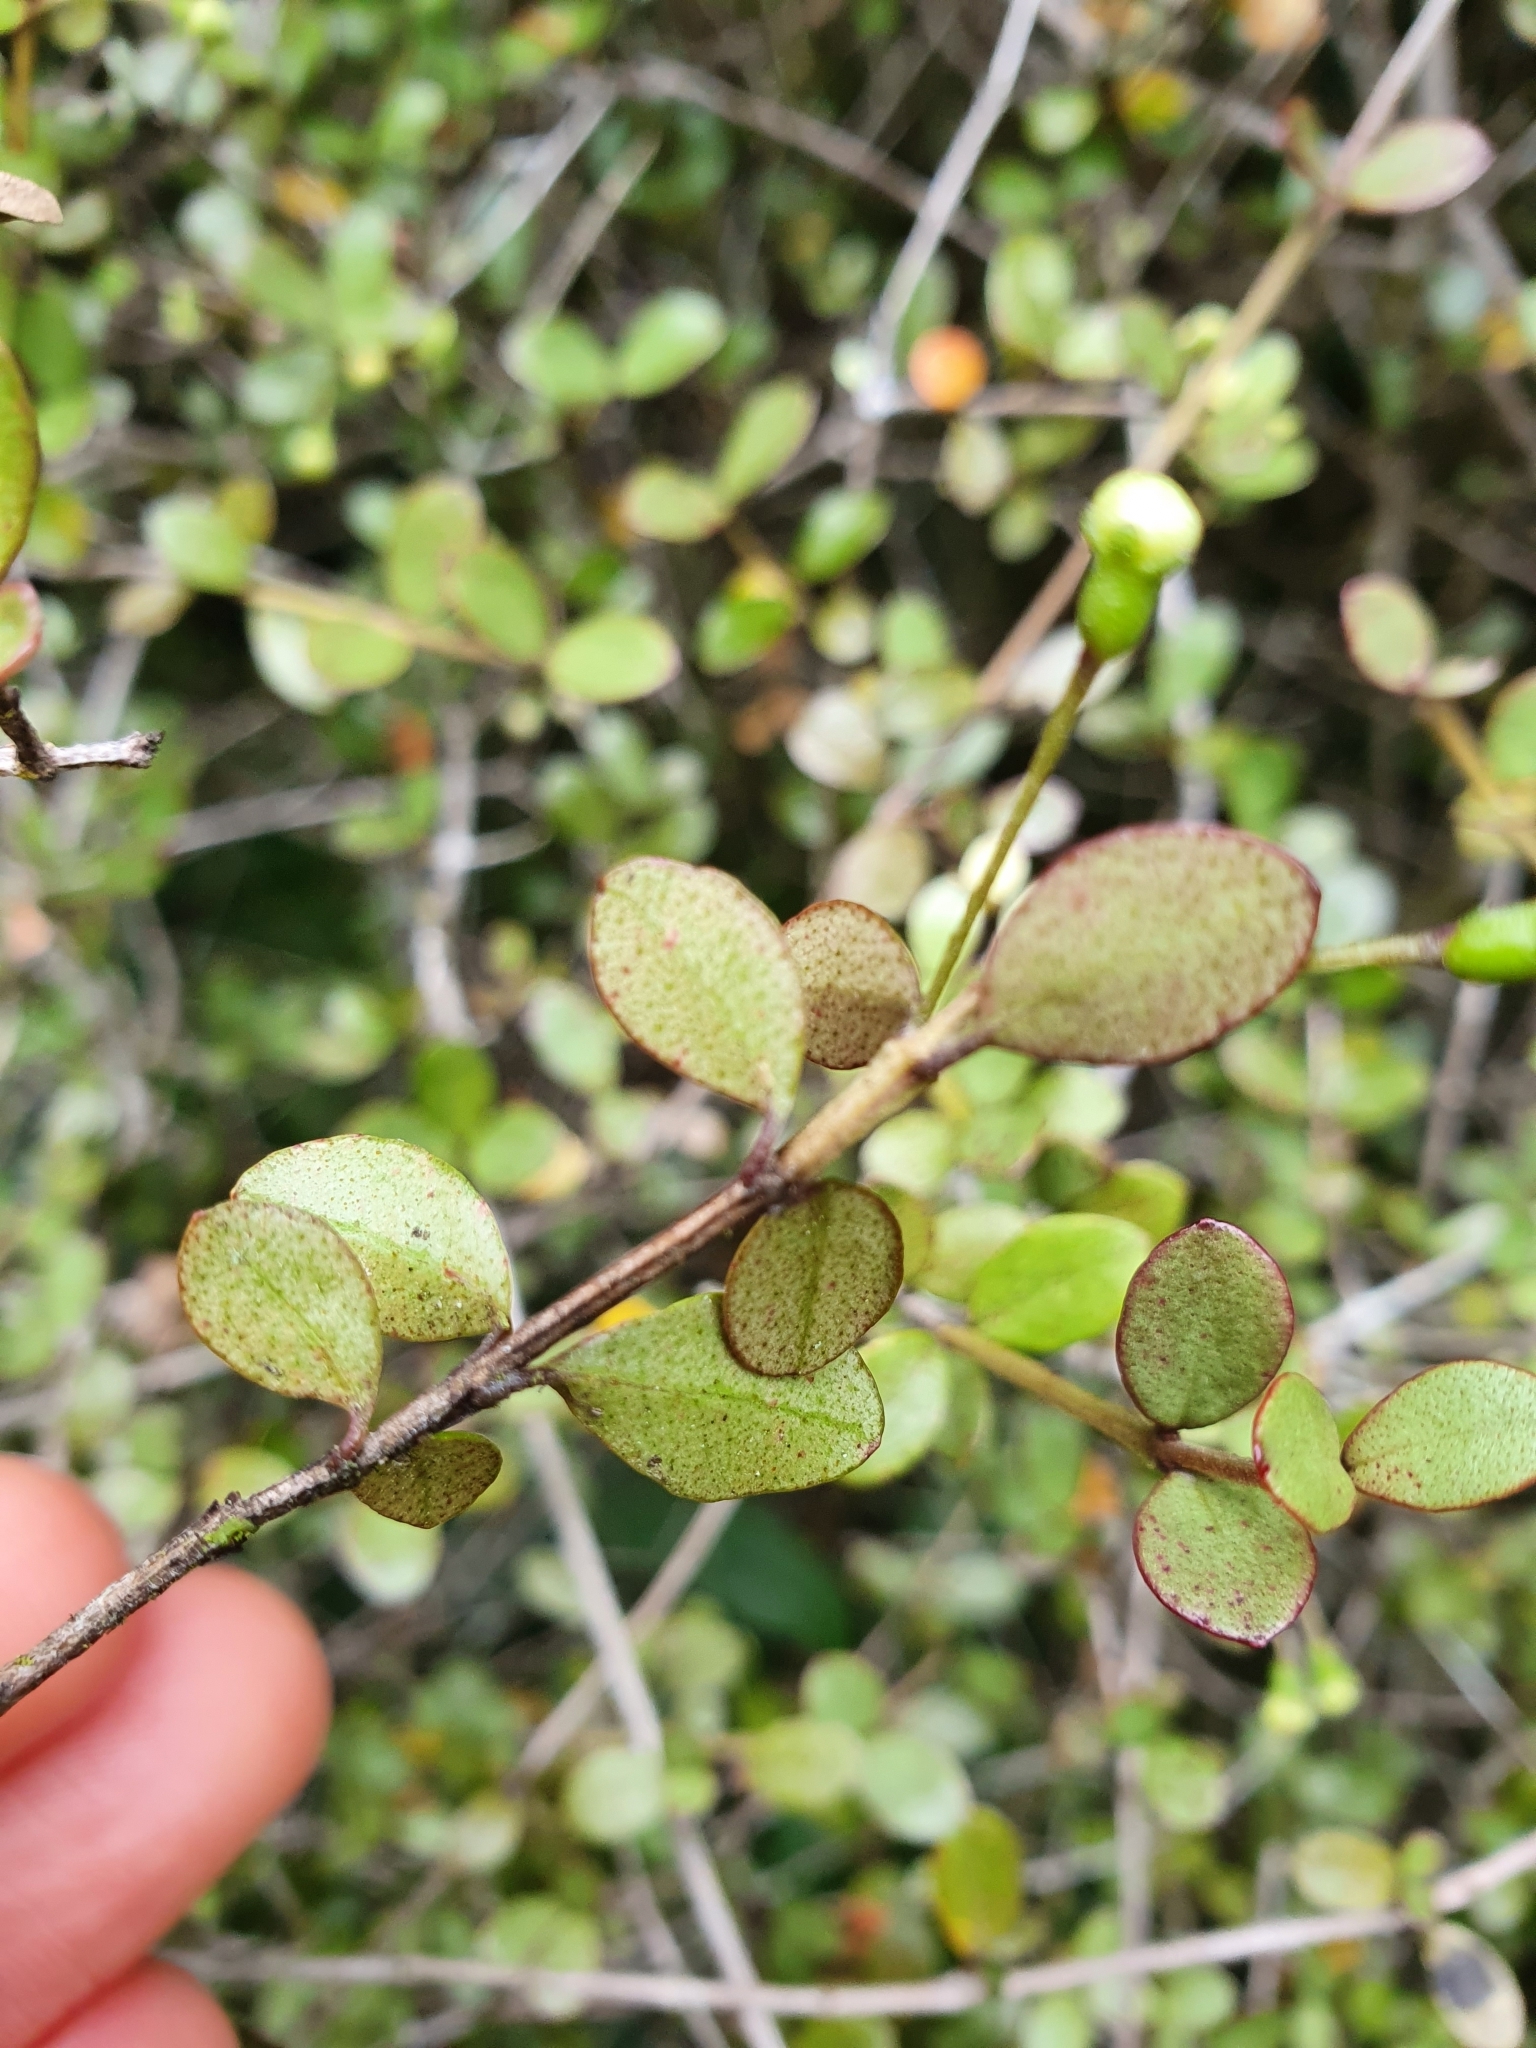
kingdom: Plantae
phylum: Tracheophyta
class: Magnoliopsida
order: Myrtales
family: Myrtaceae
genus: Neomyrtus
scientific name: Neomyrtus pedunculata
